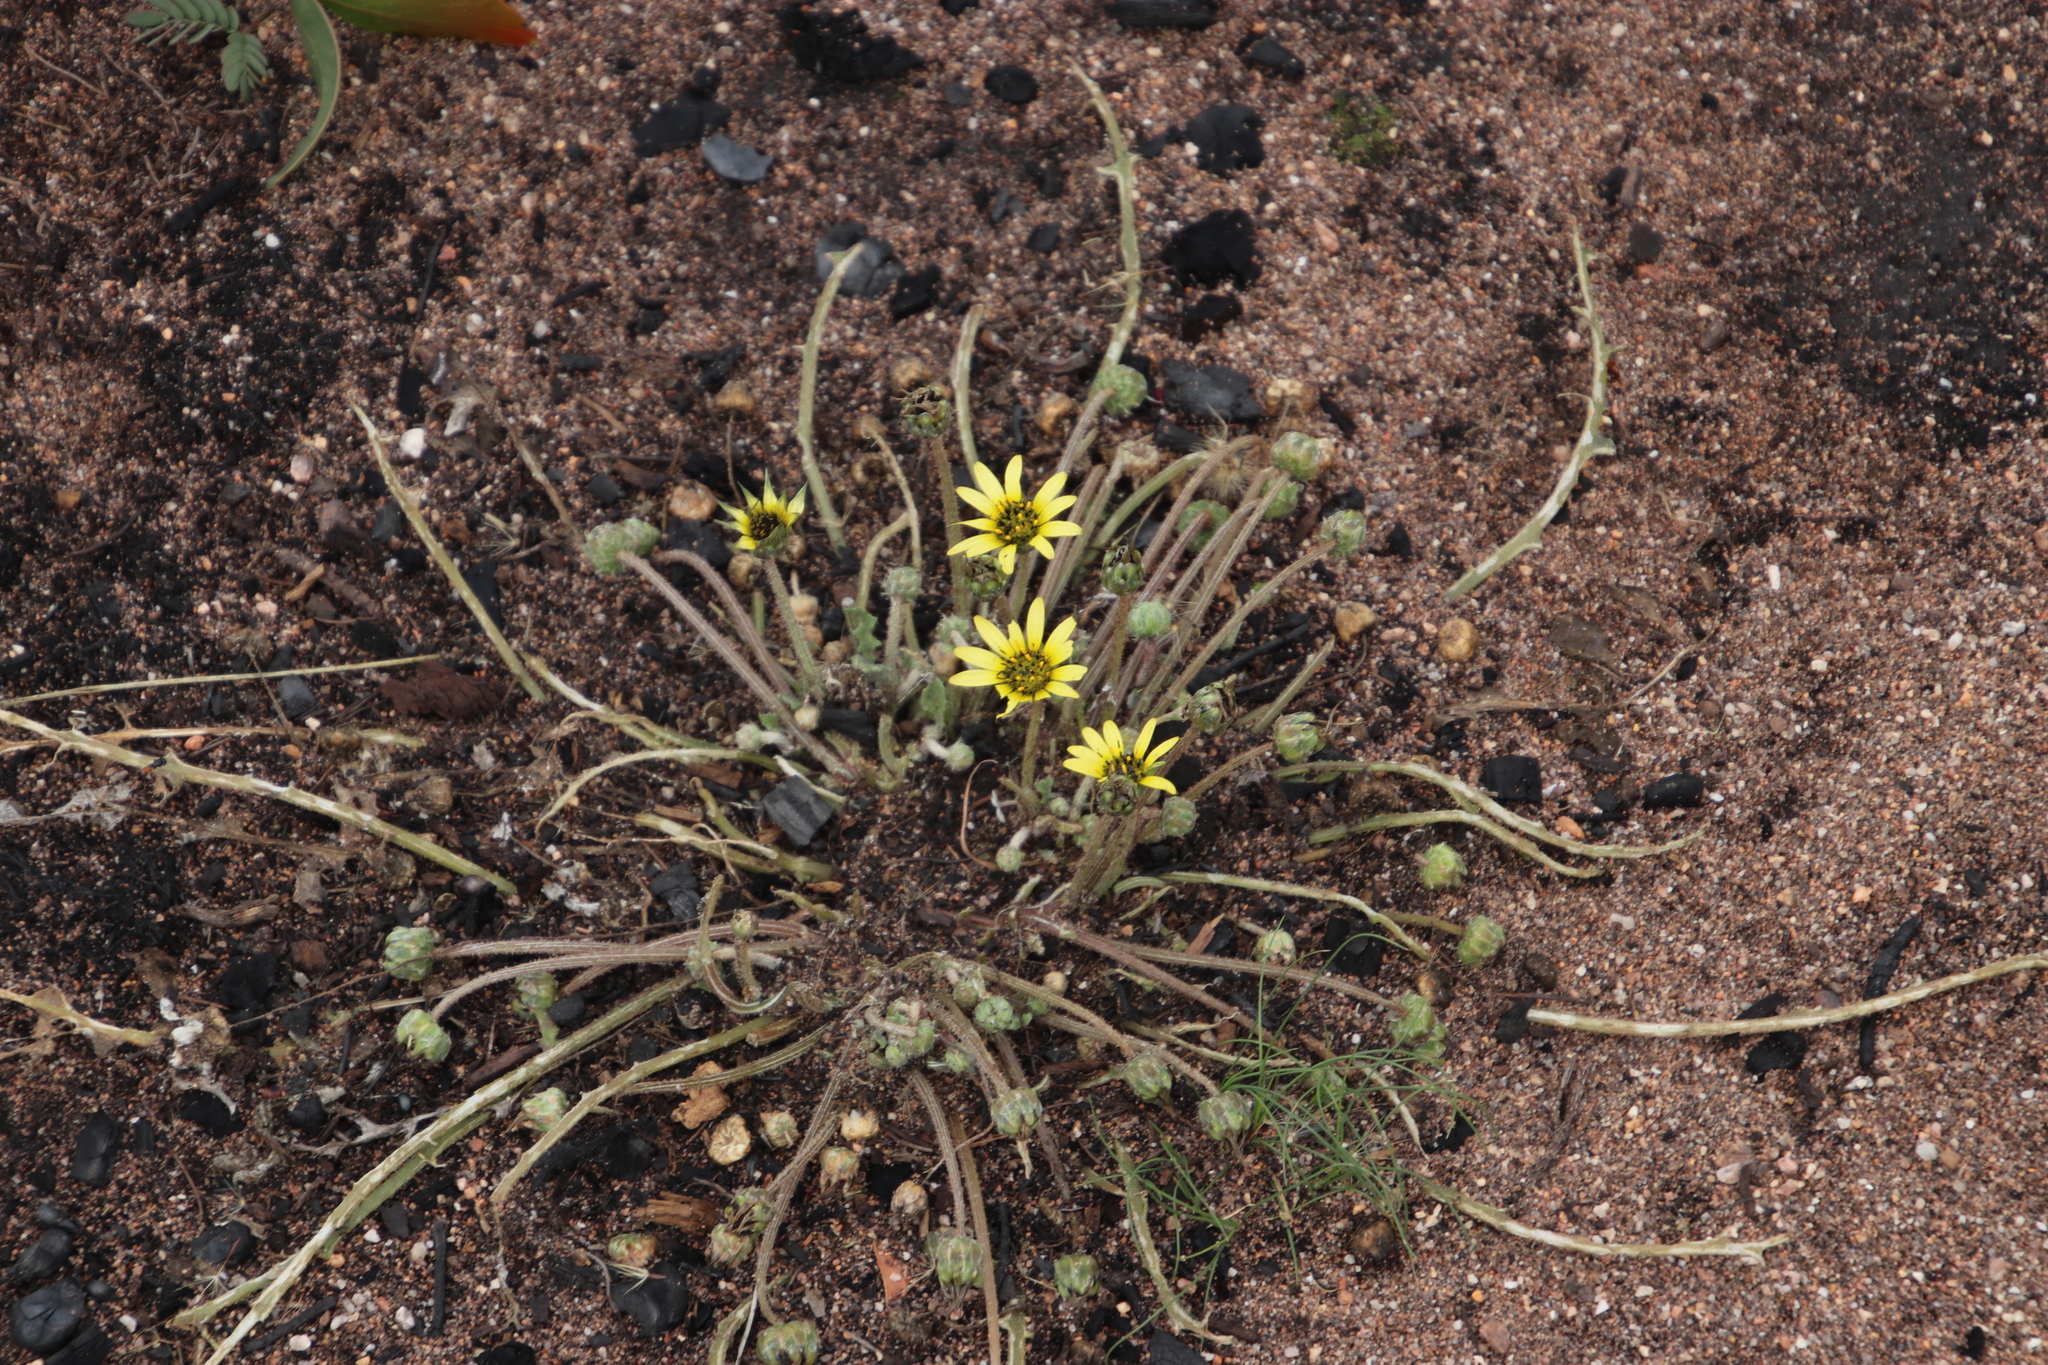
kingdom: Plantae
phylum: Tracheophyta
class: Magnoliopsida
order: Asterales
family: Asteraceae
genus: Arctotheca
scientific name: Arctotheca calendula
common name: Capeweed
